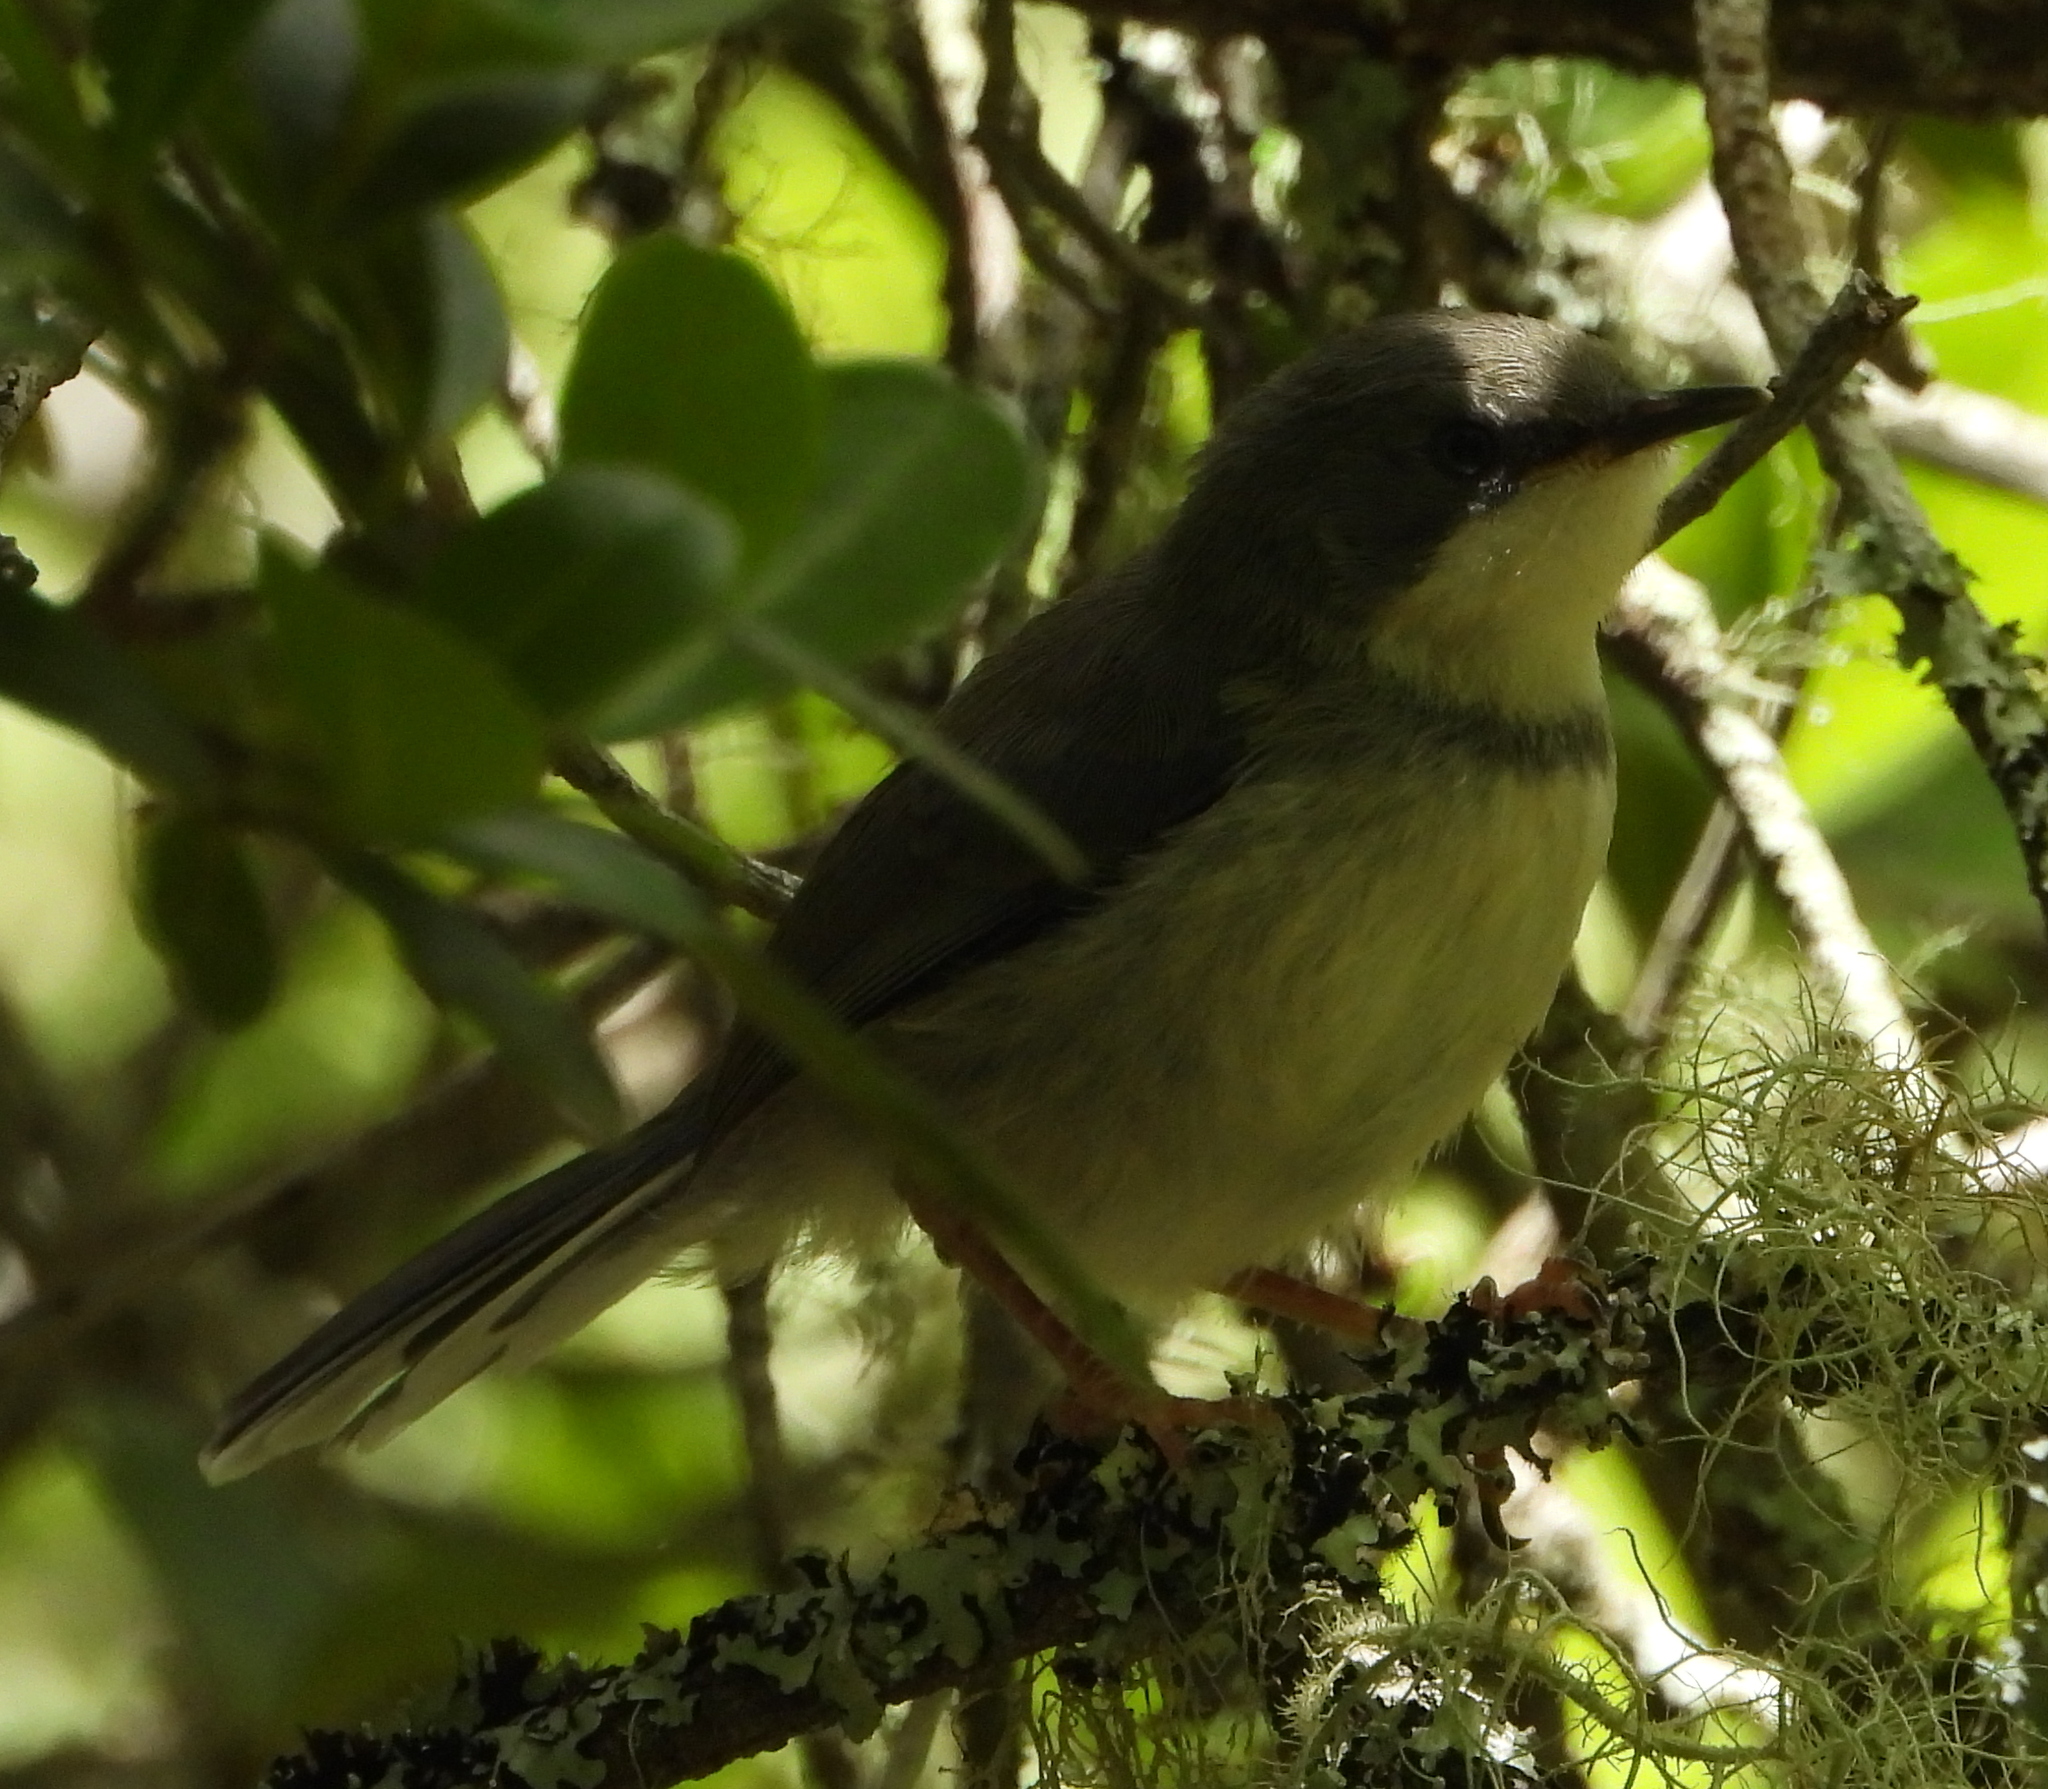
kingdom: Animalia
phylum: Chordata
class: Aves
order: Passeriformes
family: Cisticolidae
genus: Apalis
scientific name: Apalis thoracica
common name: Bar-throated apalis
